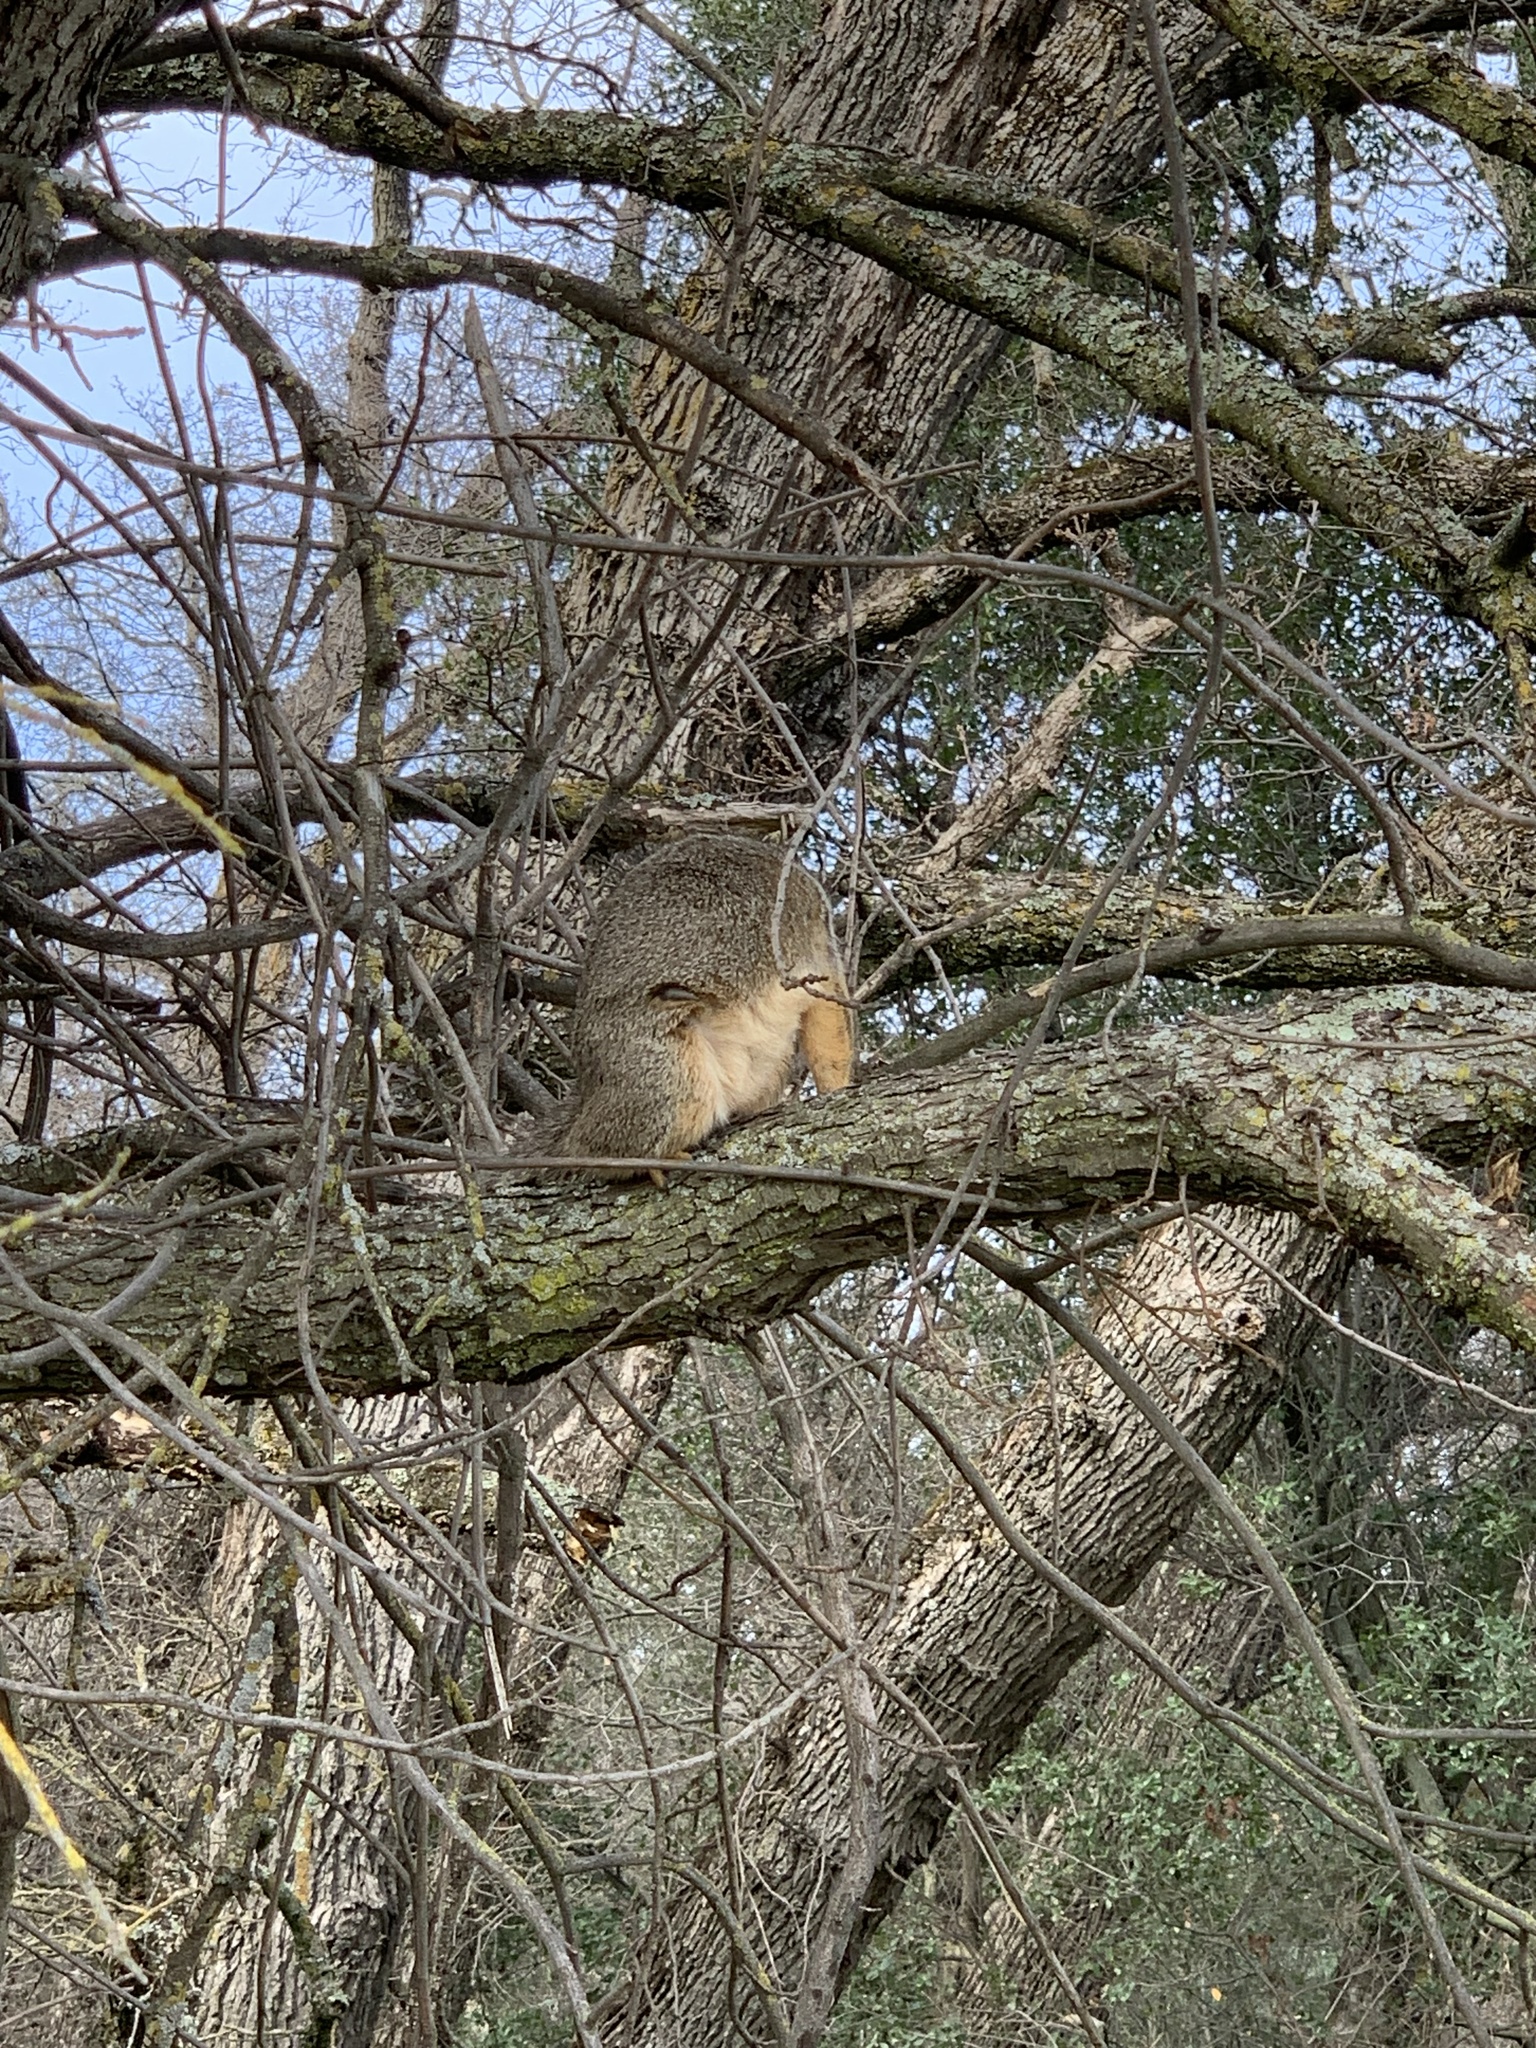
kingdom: Animalia
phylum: Chordata
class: Mammalia
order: Rodentia
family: Sciuridae
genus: Sciurus
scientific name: Sciurus niger
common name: Fox squirrel
